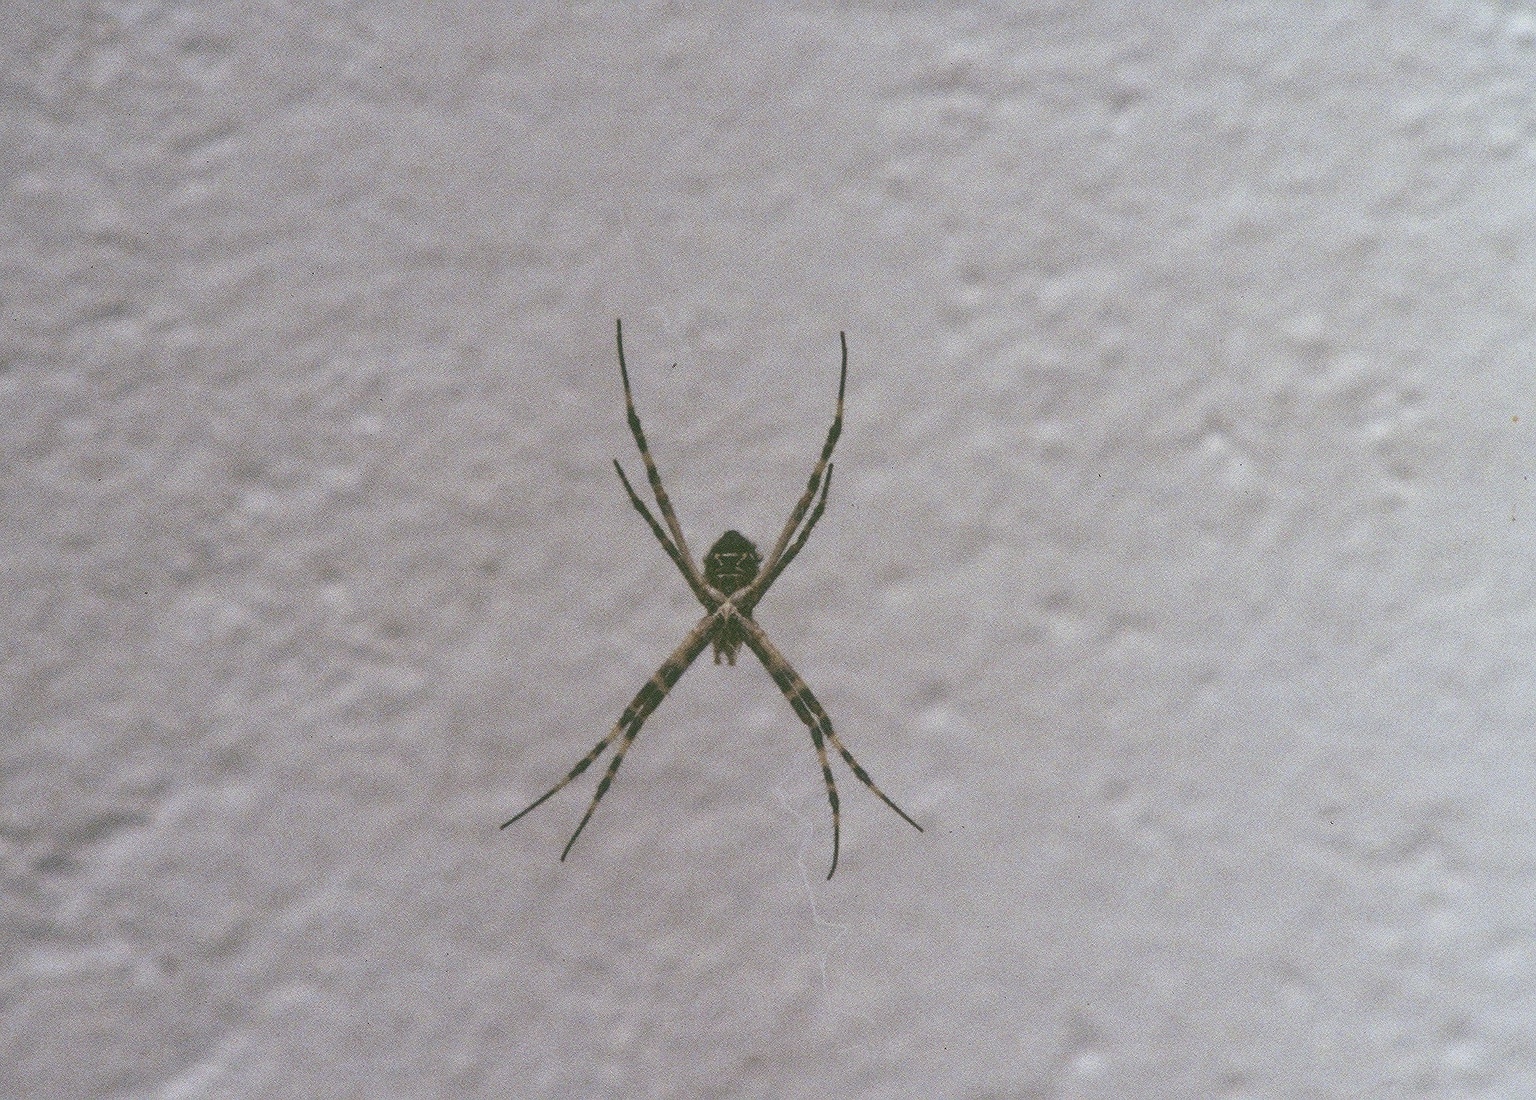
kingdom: Animalia
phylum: Arthropoda
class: Arachnida
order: Araneae
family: Araneidae
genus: Argiope
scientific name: Argiope argentata
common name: Orb weavers
